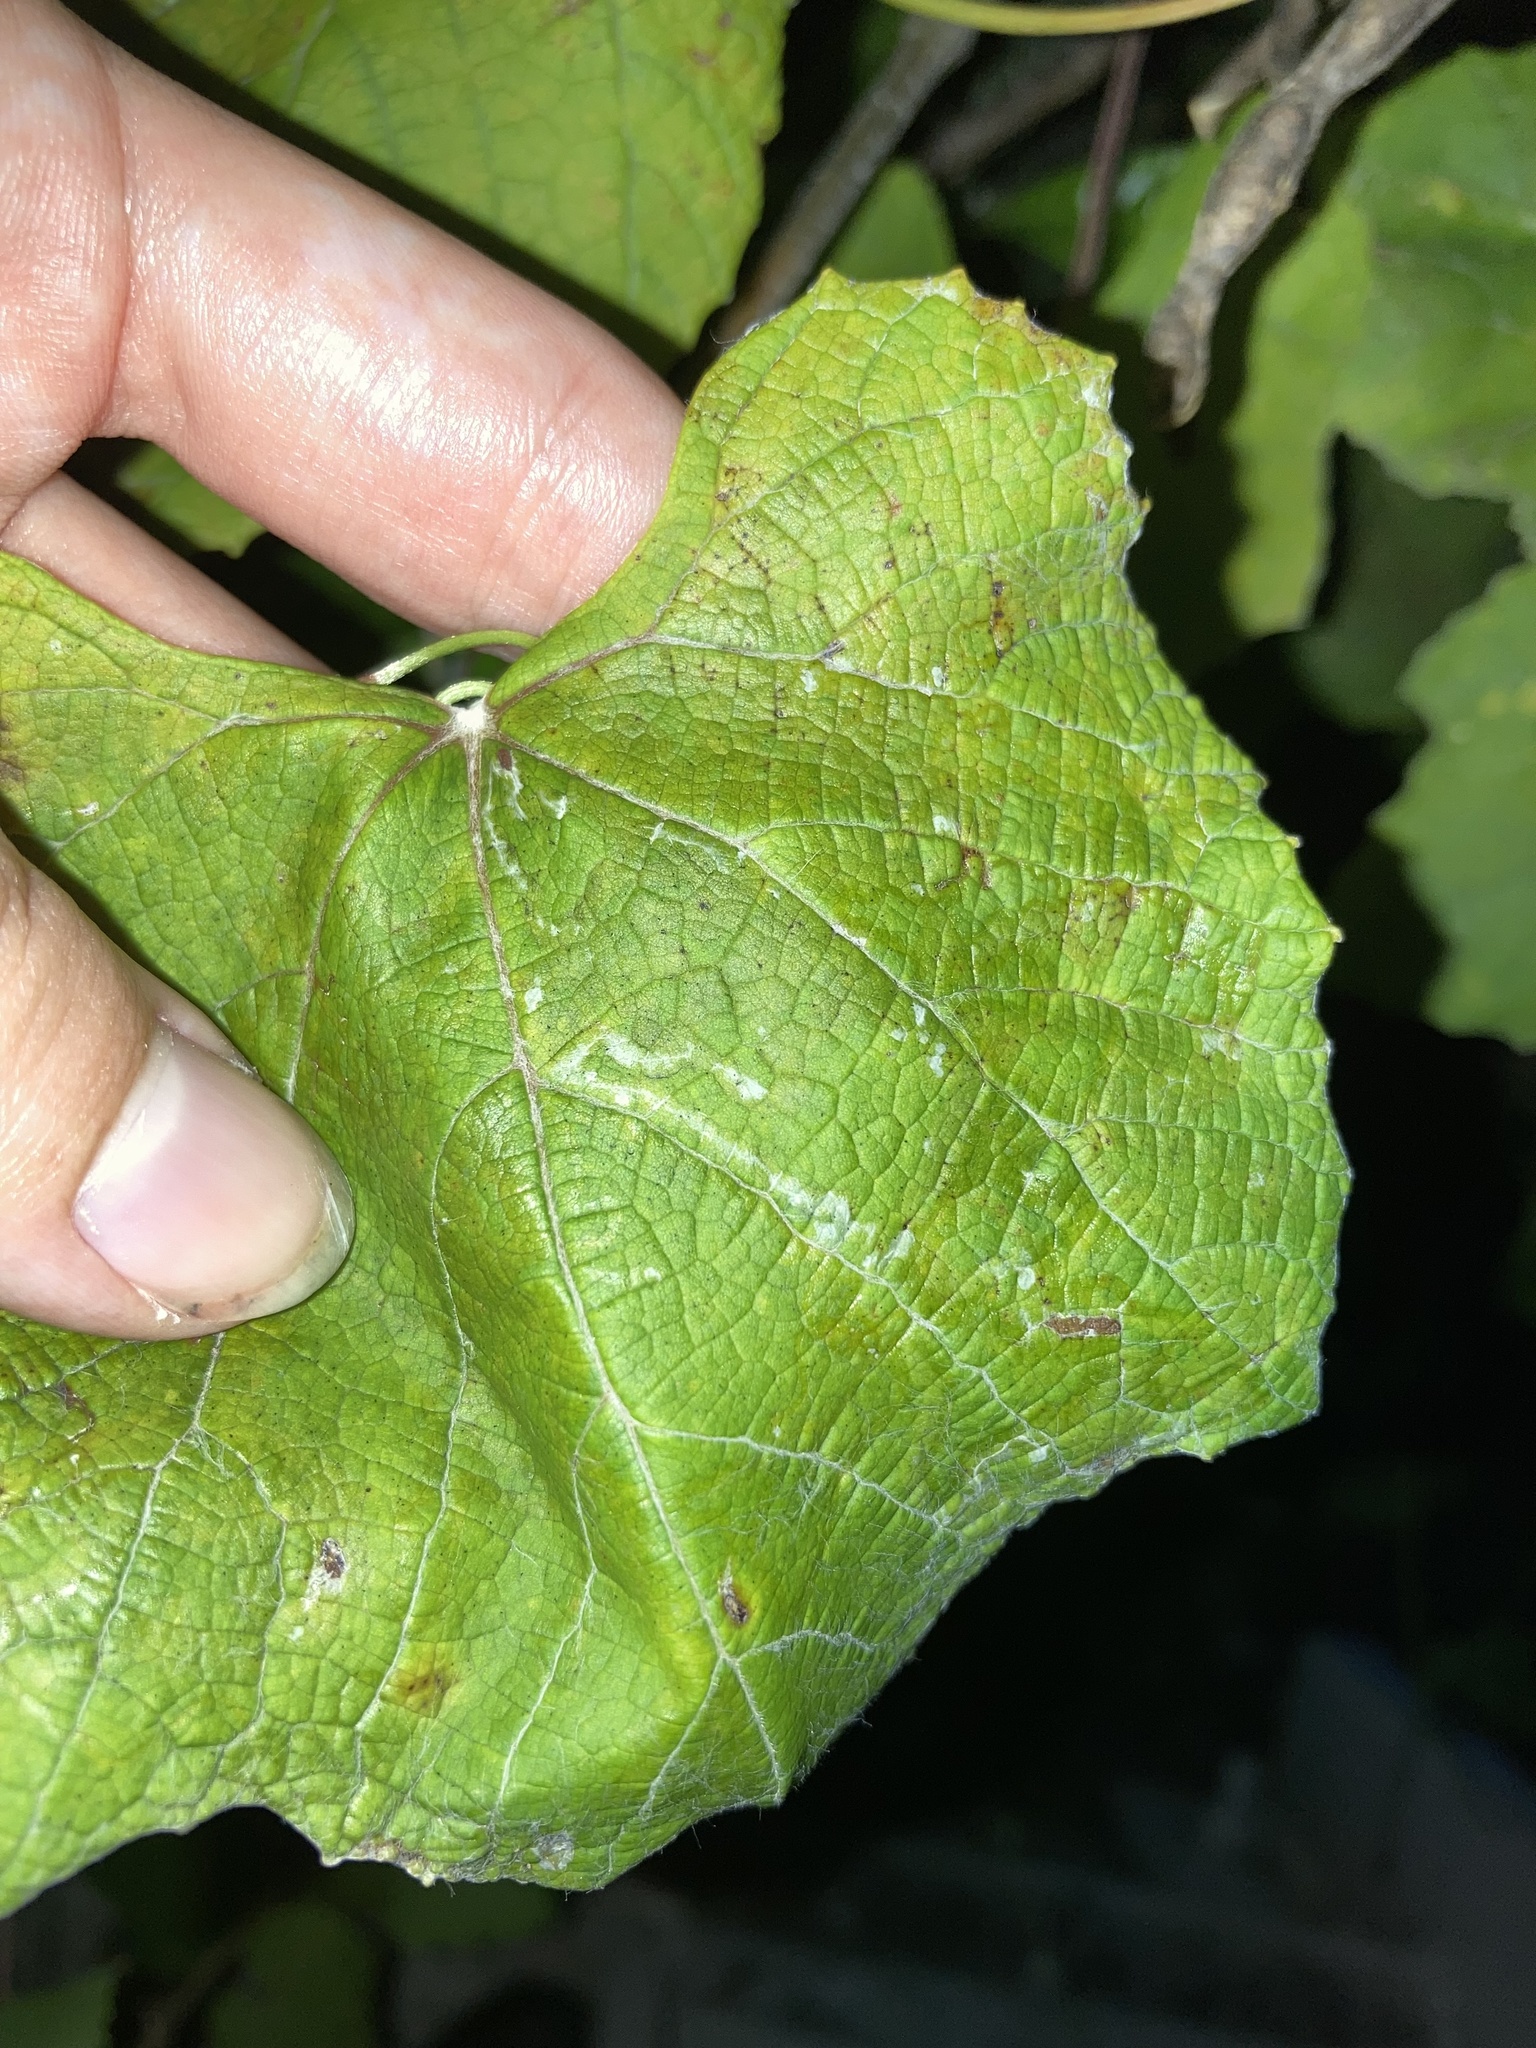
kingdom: Animalia
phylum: Arthropoda
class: Insecta
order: Lepidoptera
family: Gracillariidae
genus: Phyllocnistis
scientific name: Phyllocnistis vitegenella
